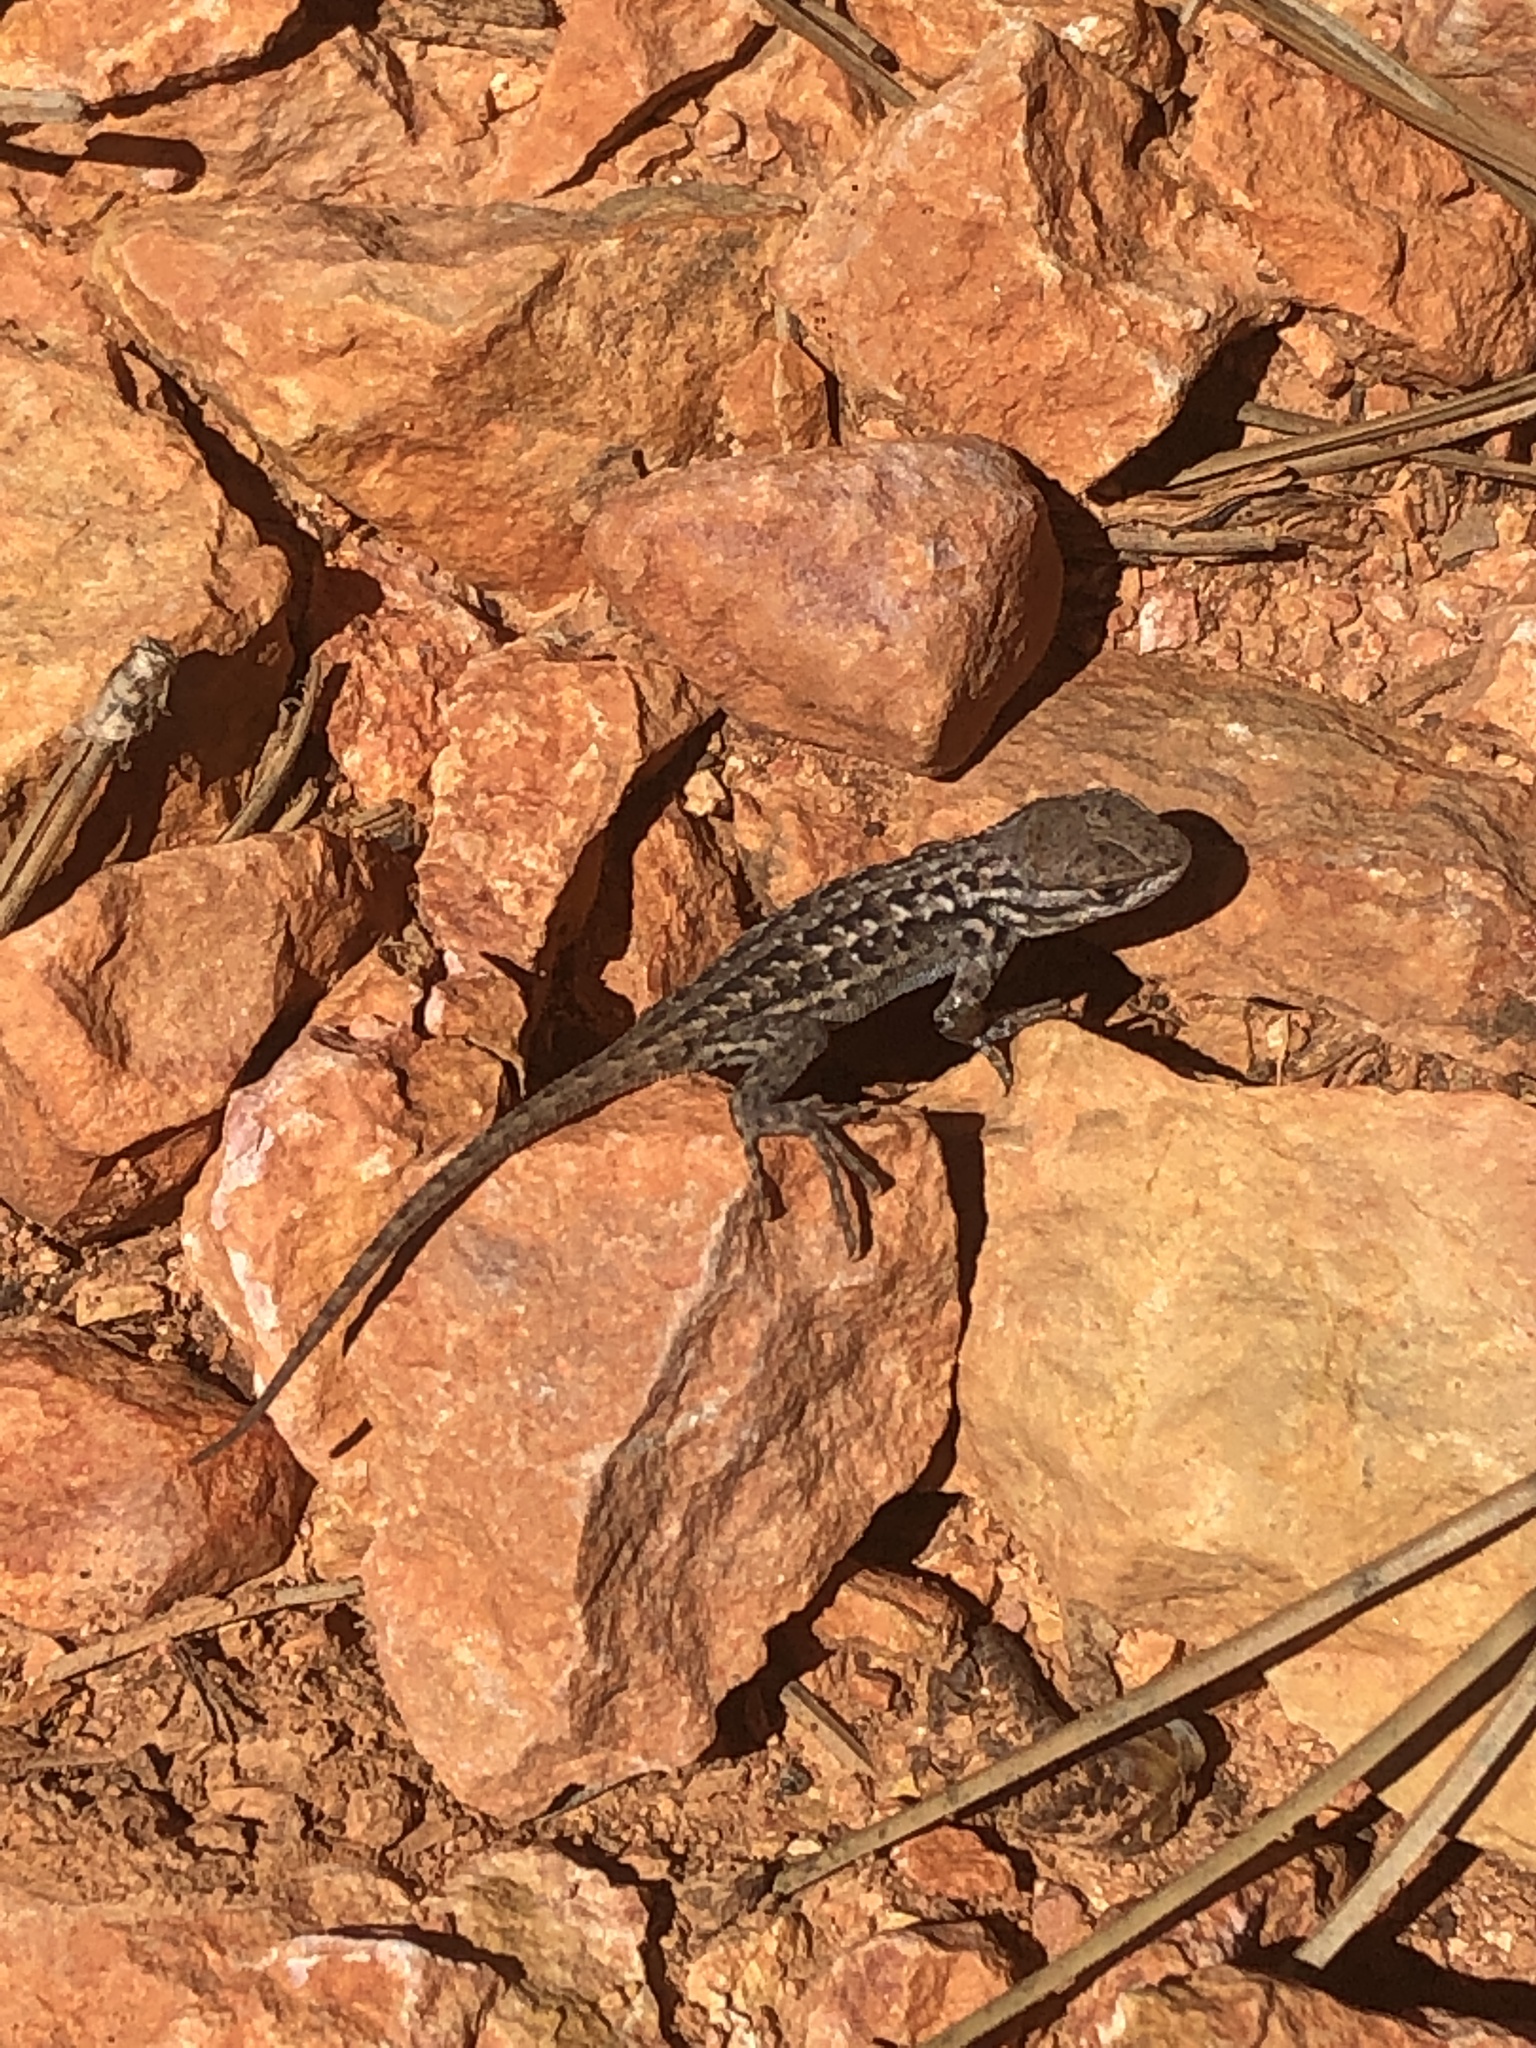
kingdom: Animalia
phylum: Chordata
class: Squamata
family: Phrynosomatidae
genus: Sceloporus
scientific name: Sceloporus graciosus
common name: Sagebrush lizard
